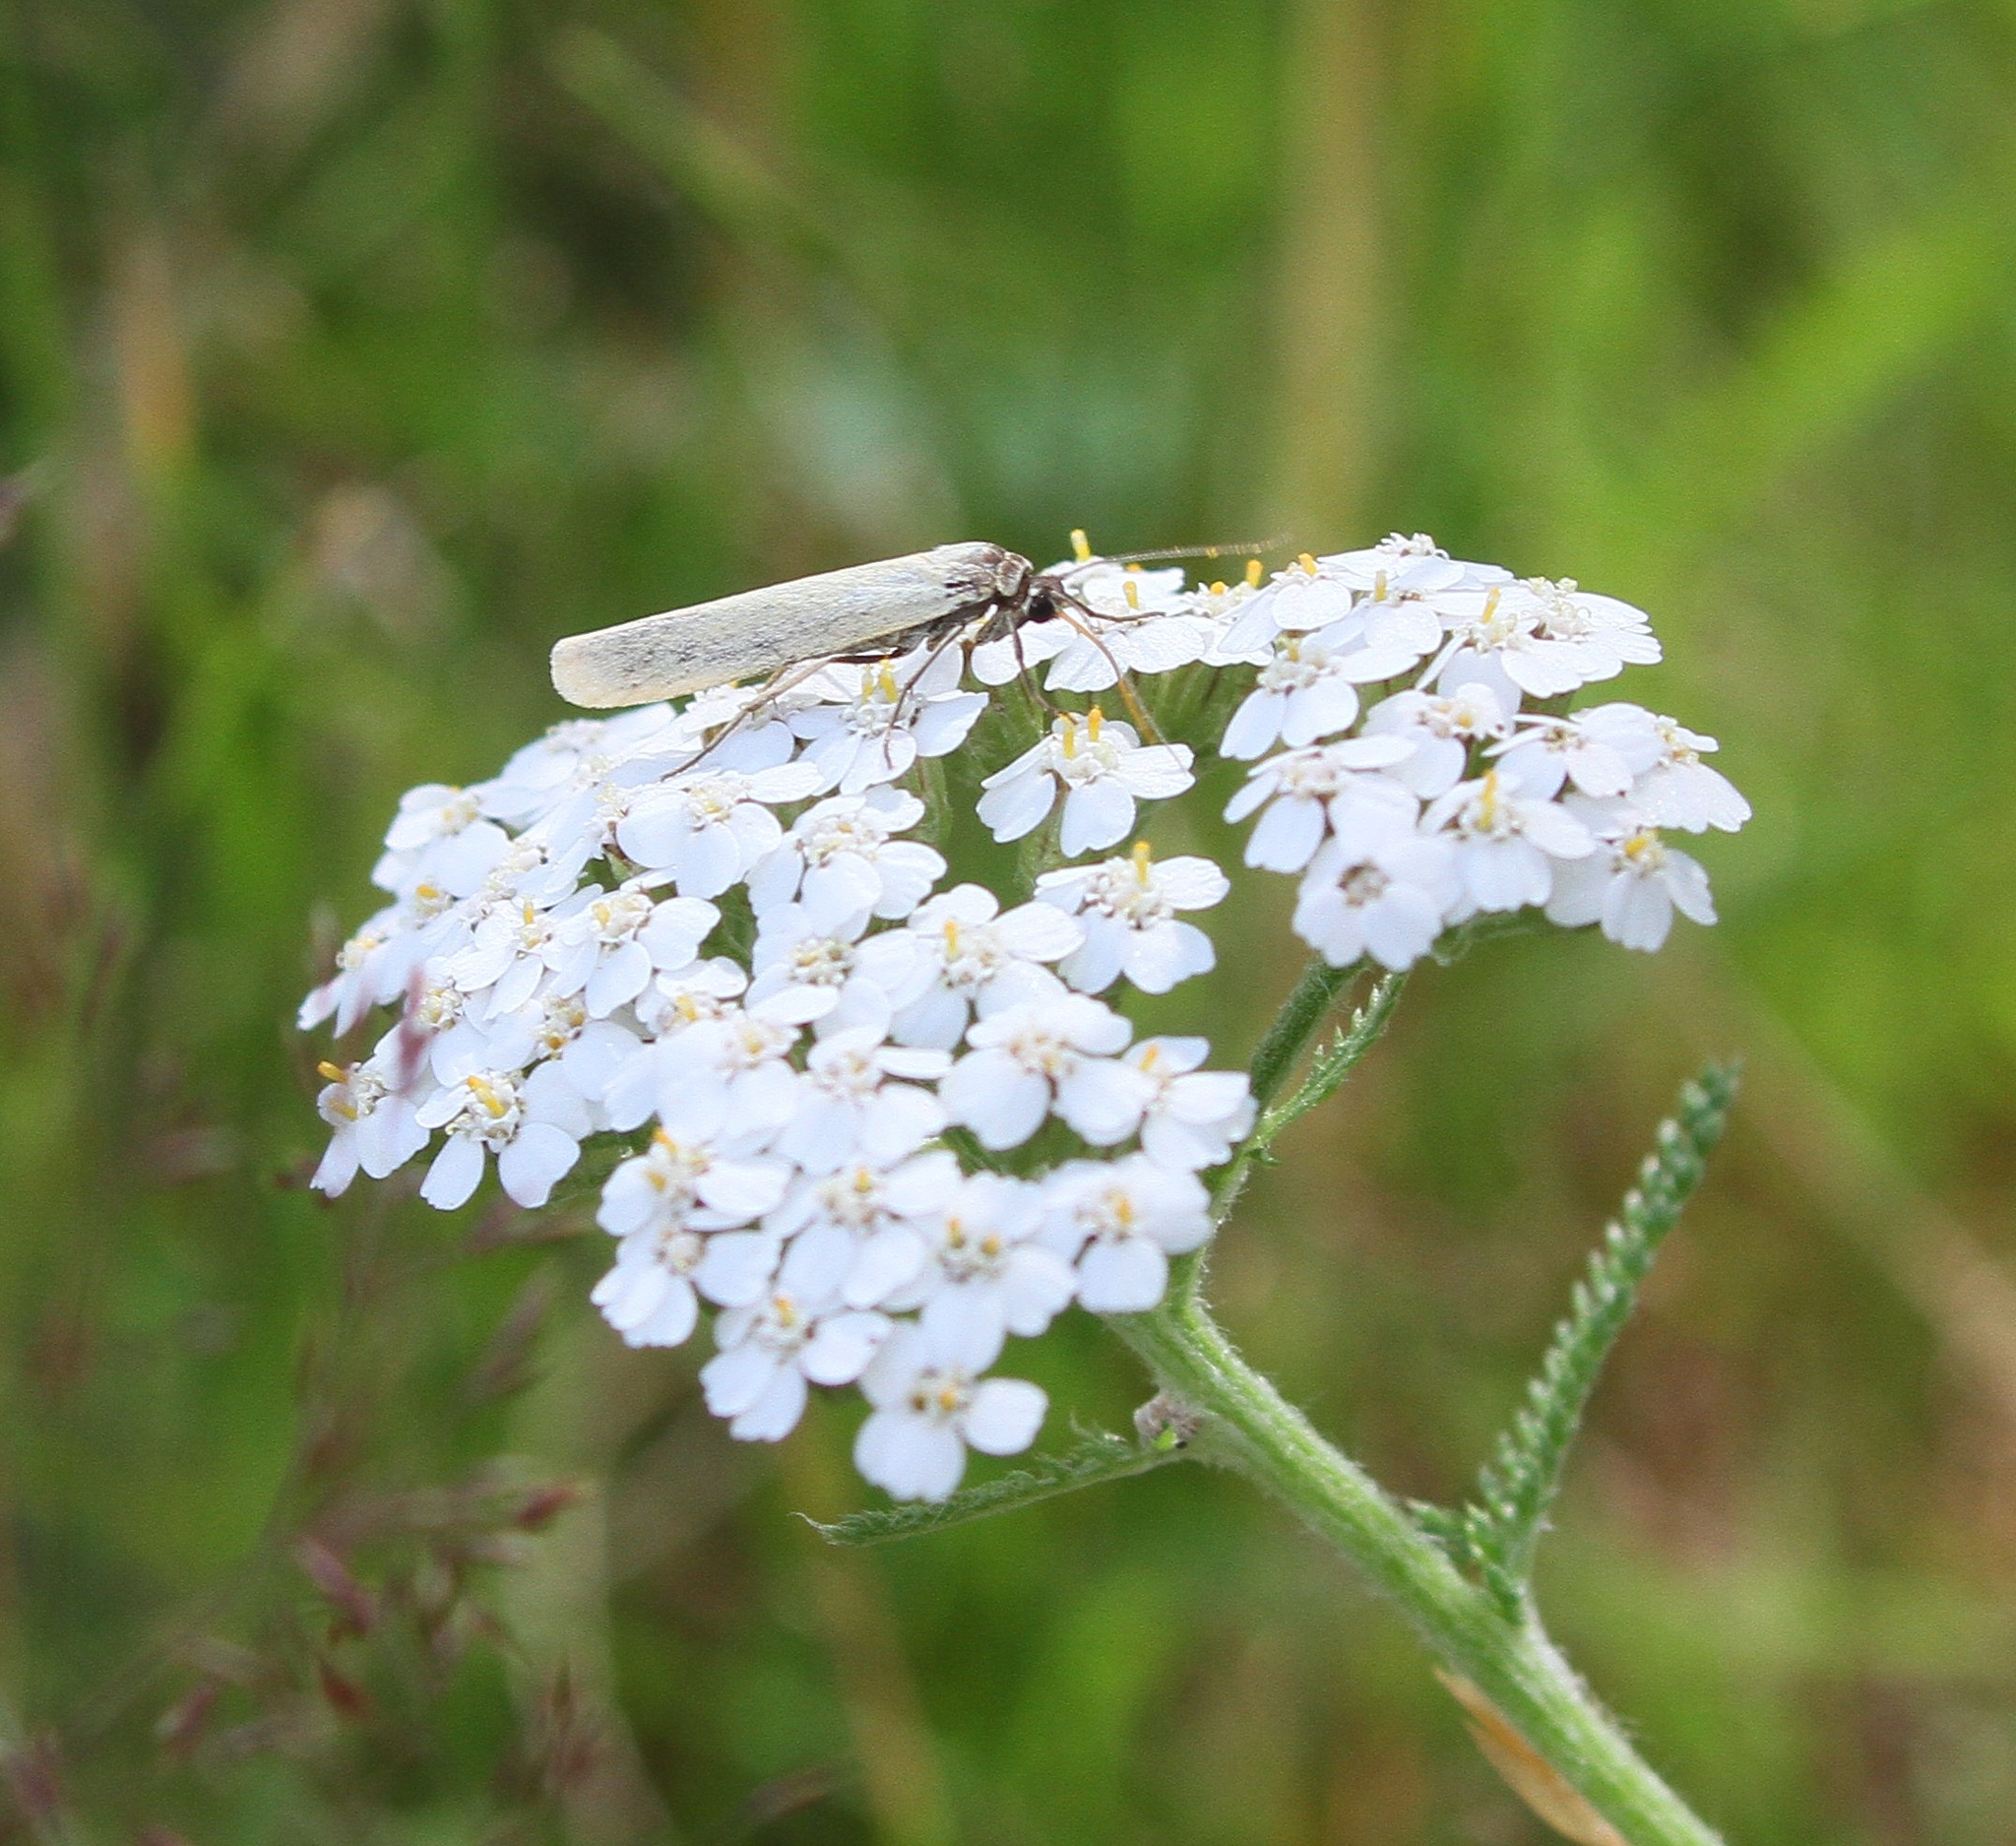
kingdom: Animalia
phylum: Arthropoda
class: Insecta
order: Lepidoptera
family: Erebidae
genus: Indalia
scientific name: Indalia lutarella
